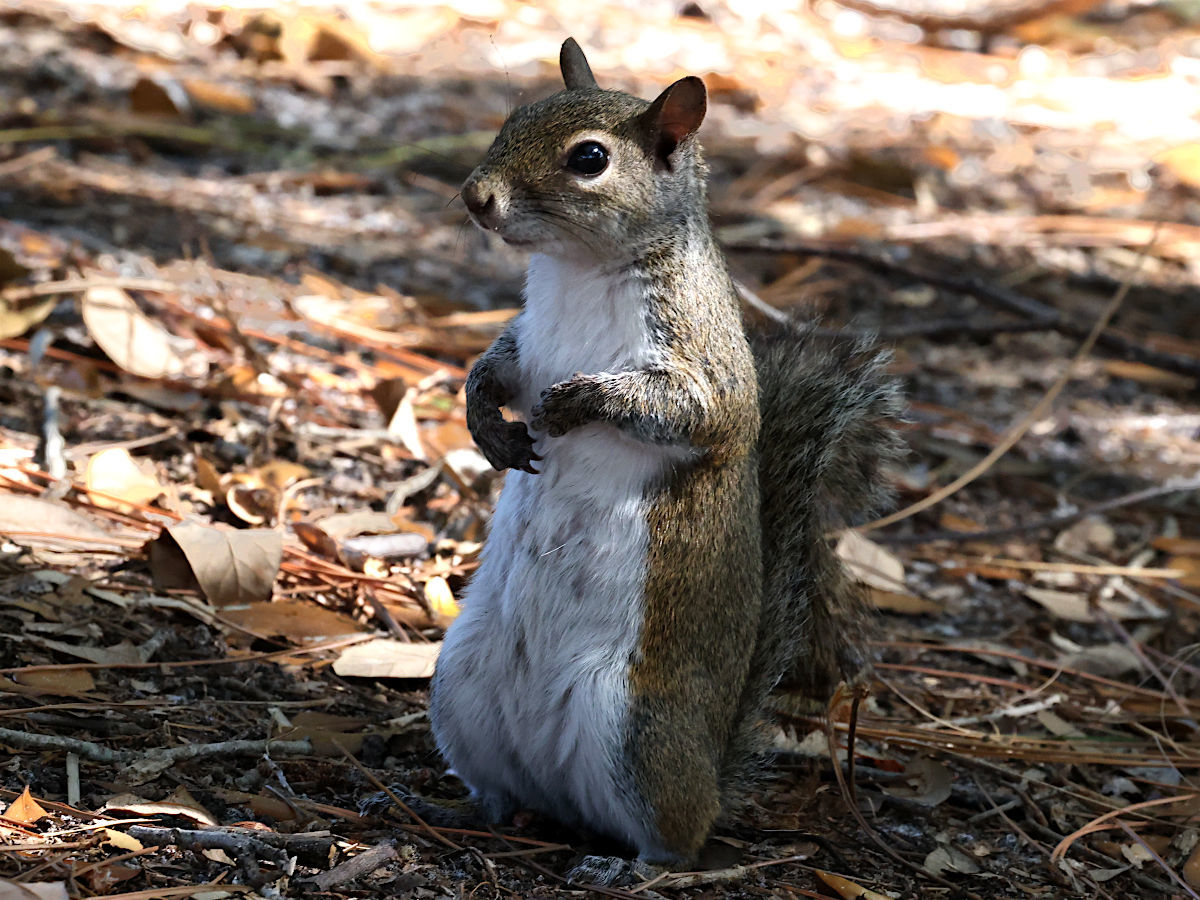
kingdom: Animalia
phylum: Chordata
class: Mammalia
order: Rodentia
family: Sciuridae
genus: Sciurus
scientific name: Sciurus carolinensis
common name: Eastern gray squirrel
